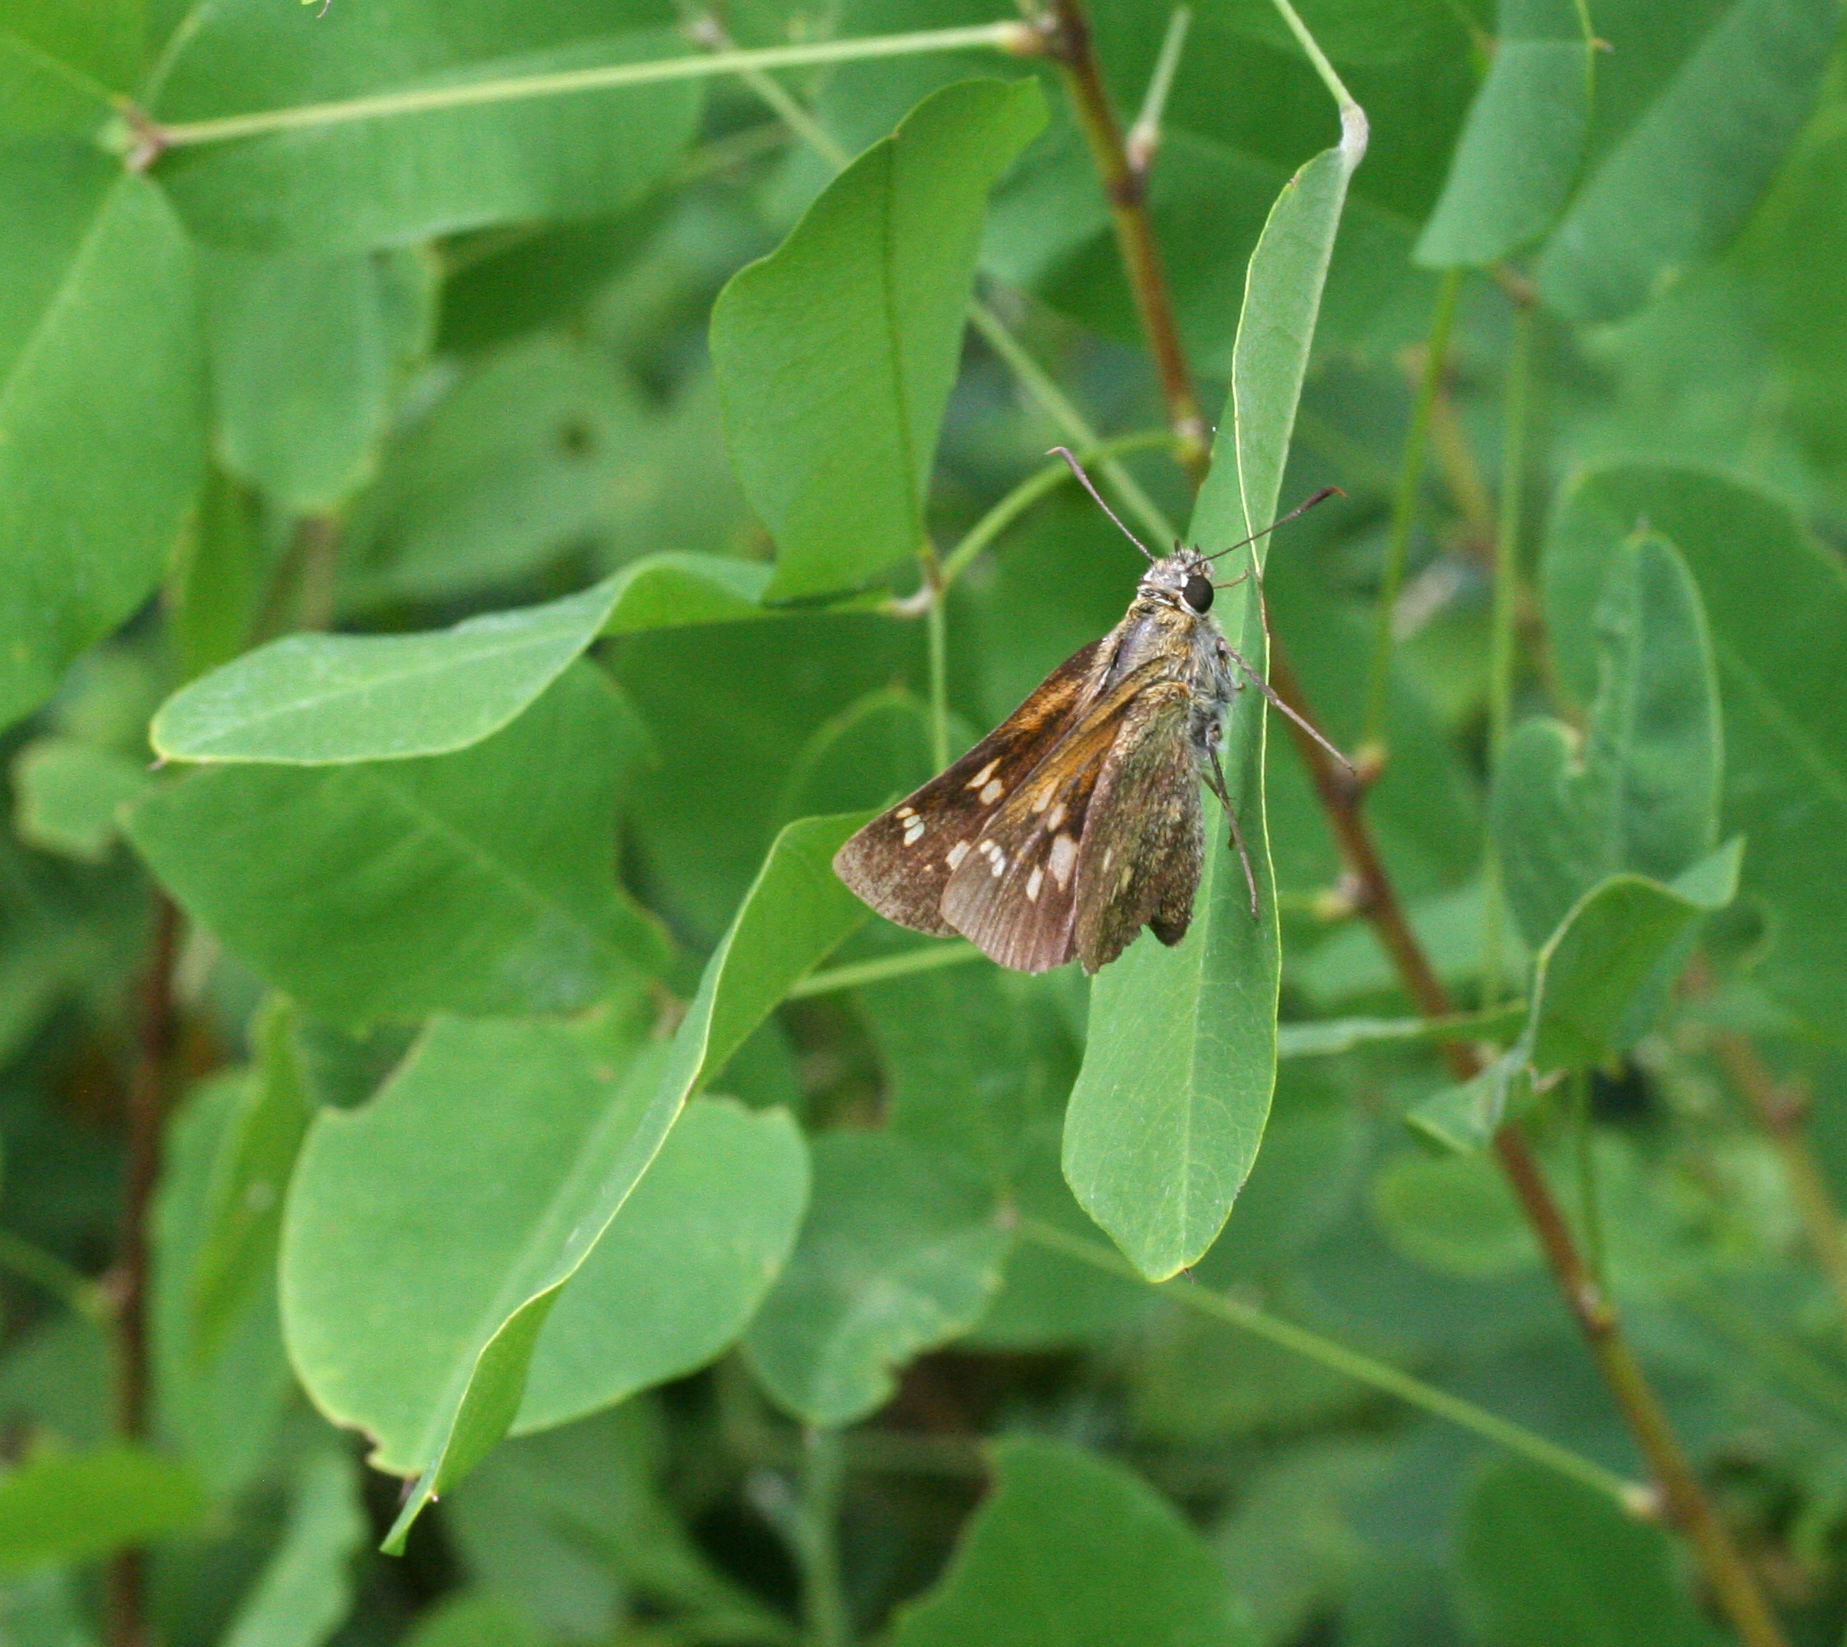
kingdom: Animalia
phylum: Arthropoda
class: Insecta
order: Lepidoptera
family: Hesperiidae
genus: Ochlodes
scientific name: Ochlodes subhyalina
